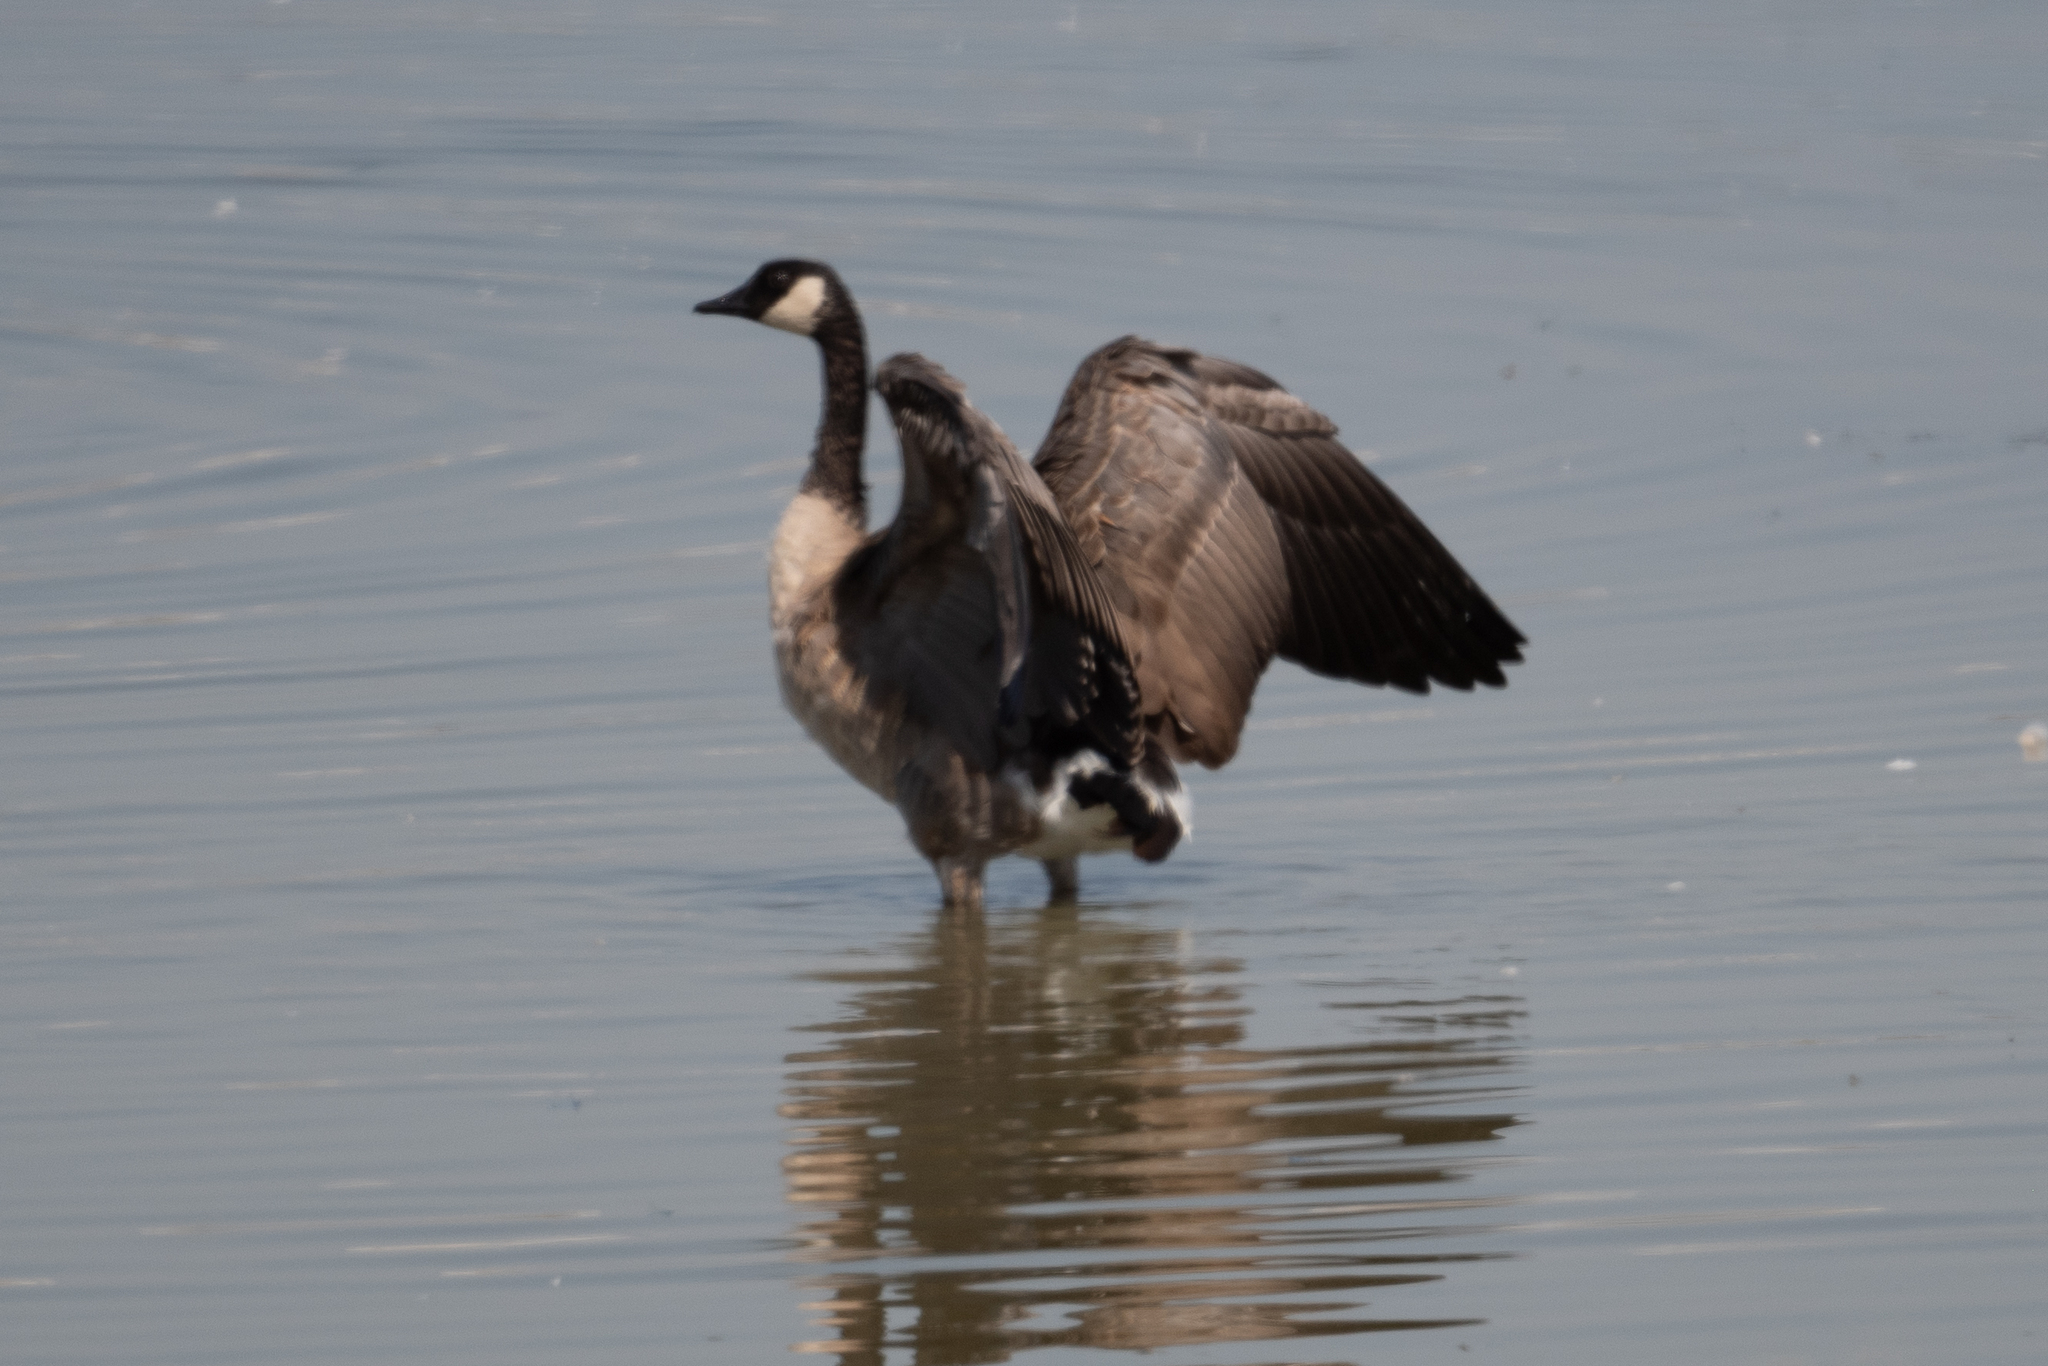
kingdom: Animalia
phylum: Chordata
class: Aves
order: Anseriformes
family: Anatidae
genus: Branta
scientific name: Branta canadensis
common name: Canada goose
